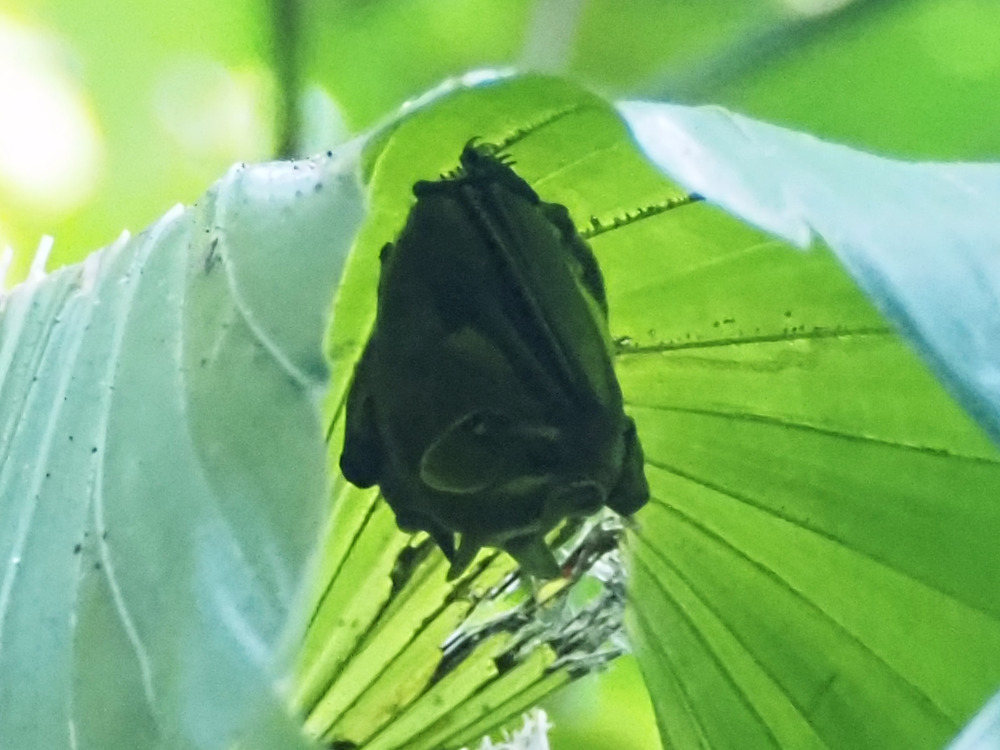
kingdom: Animalia
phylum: Chordata
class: Mammalia
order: Chiroptera
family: Phyllostomidae
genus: Uroderma
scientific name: Uroderma bilobatum
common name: Common tent-making bat
